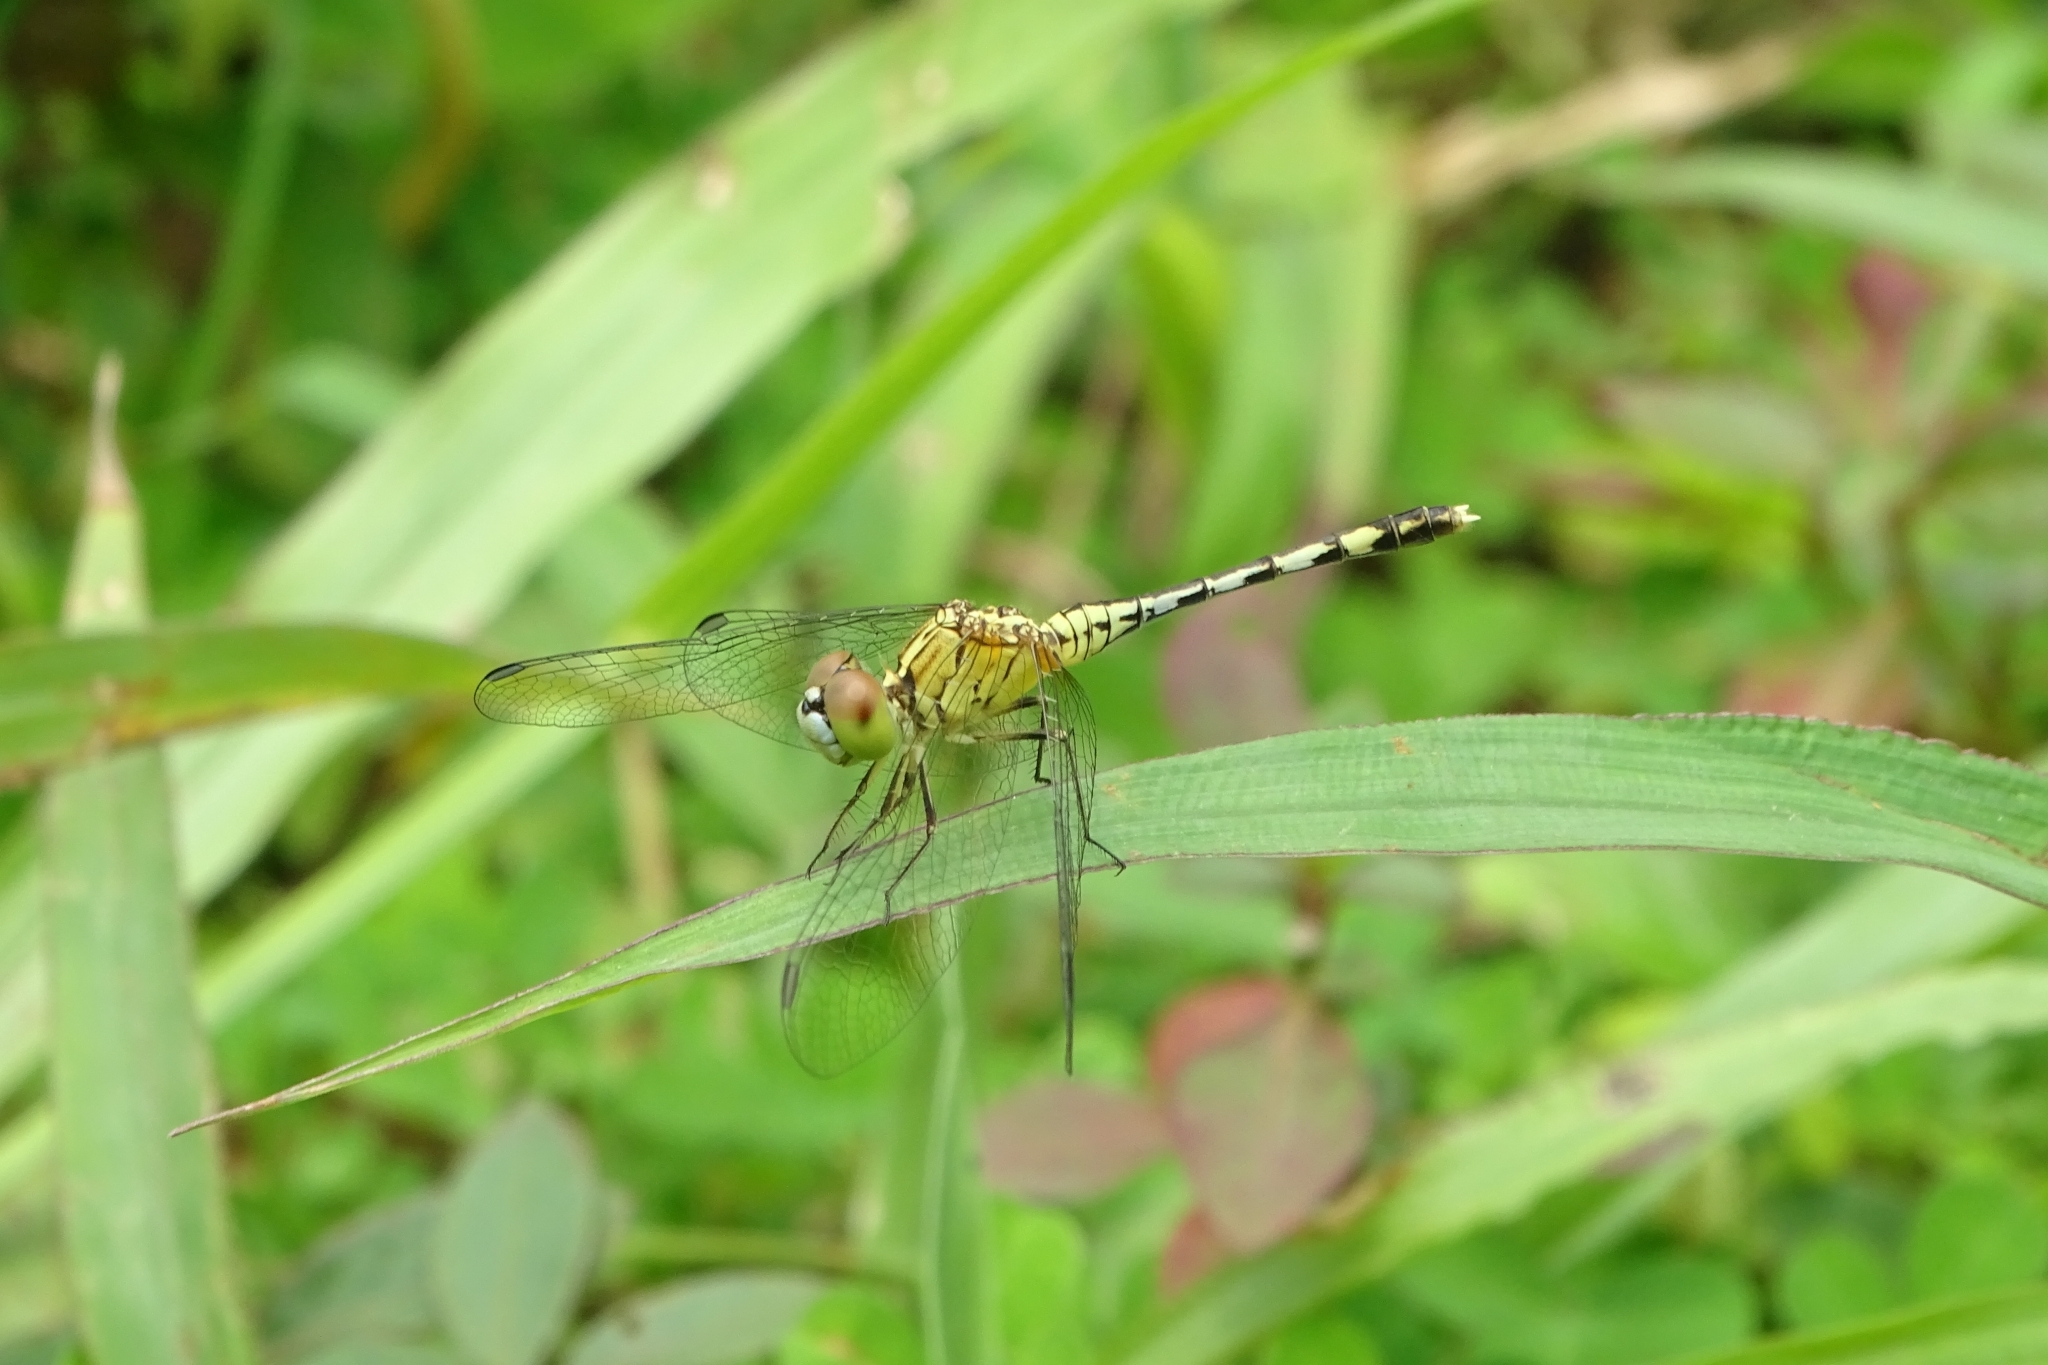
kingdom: Animalia
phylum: Arthropoda
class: Insecta
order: Odonata
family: Libellulidae
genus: Diplacodes
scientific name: Diplacodes trivialis
